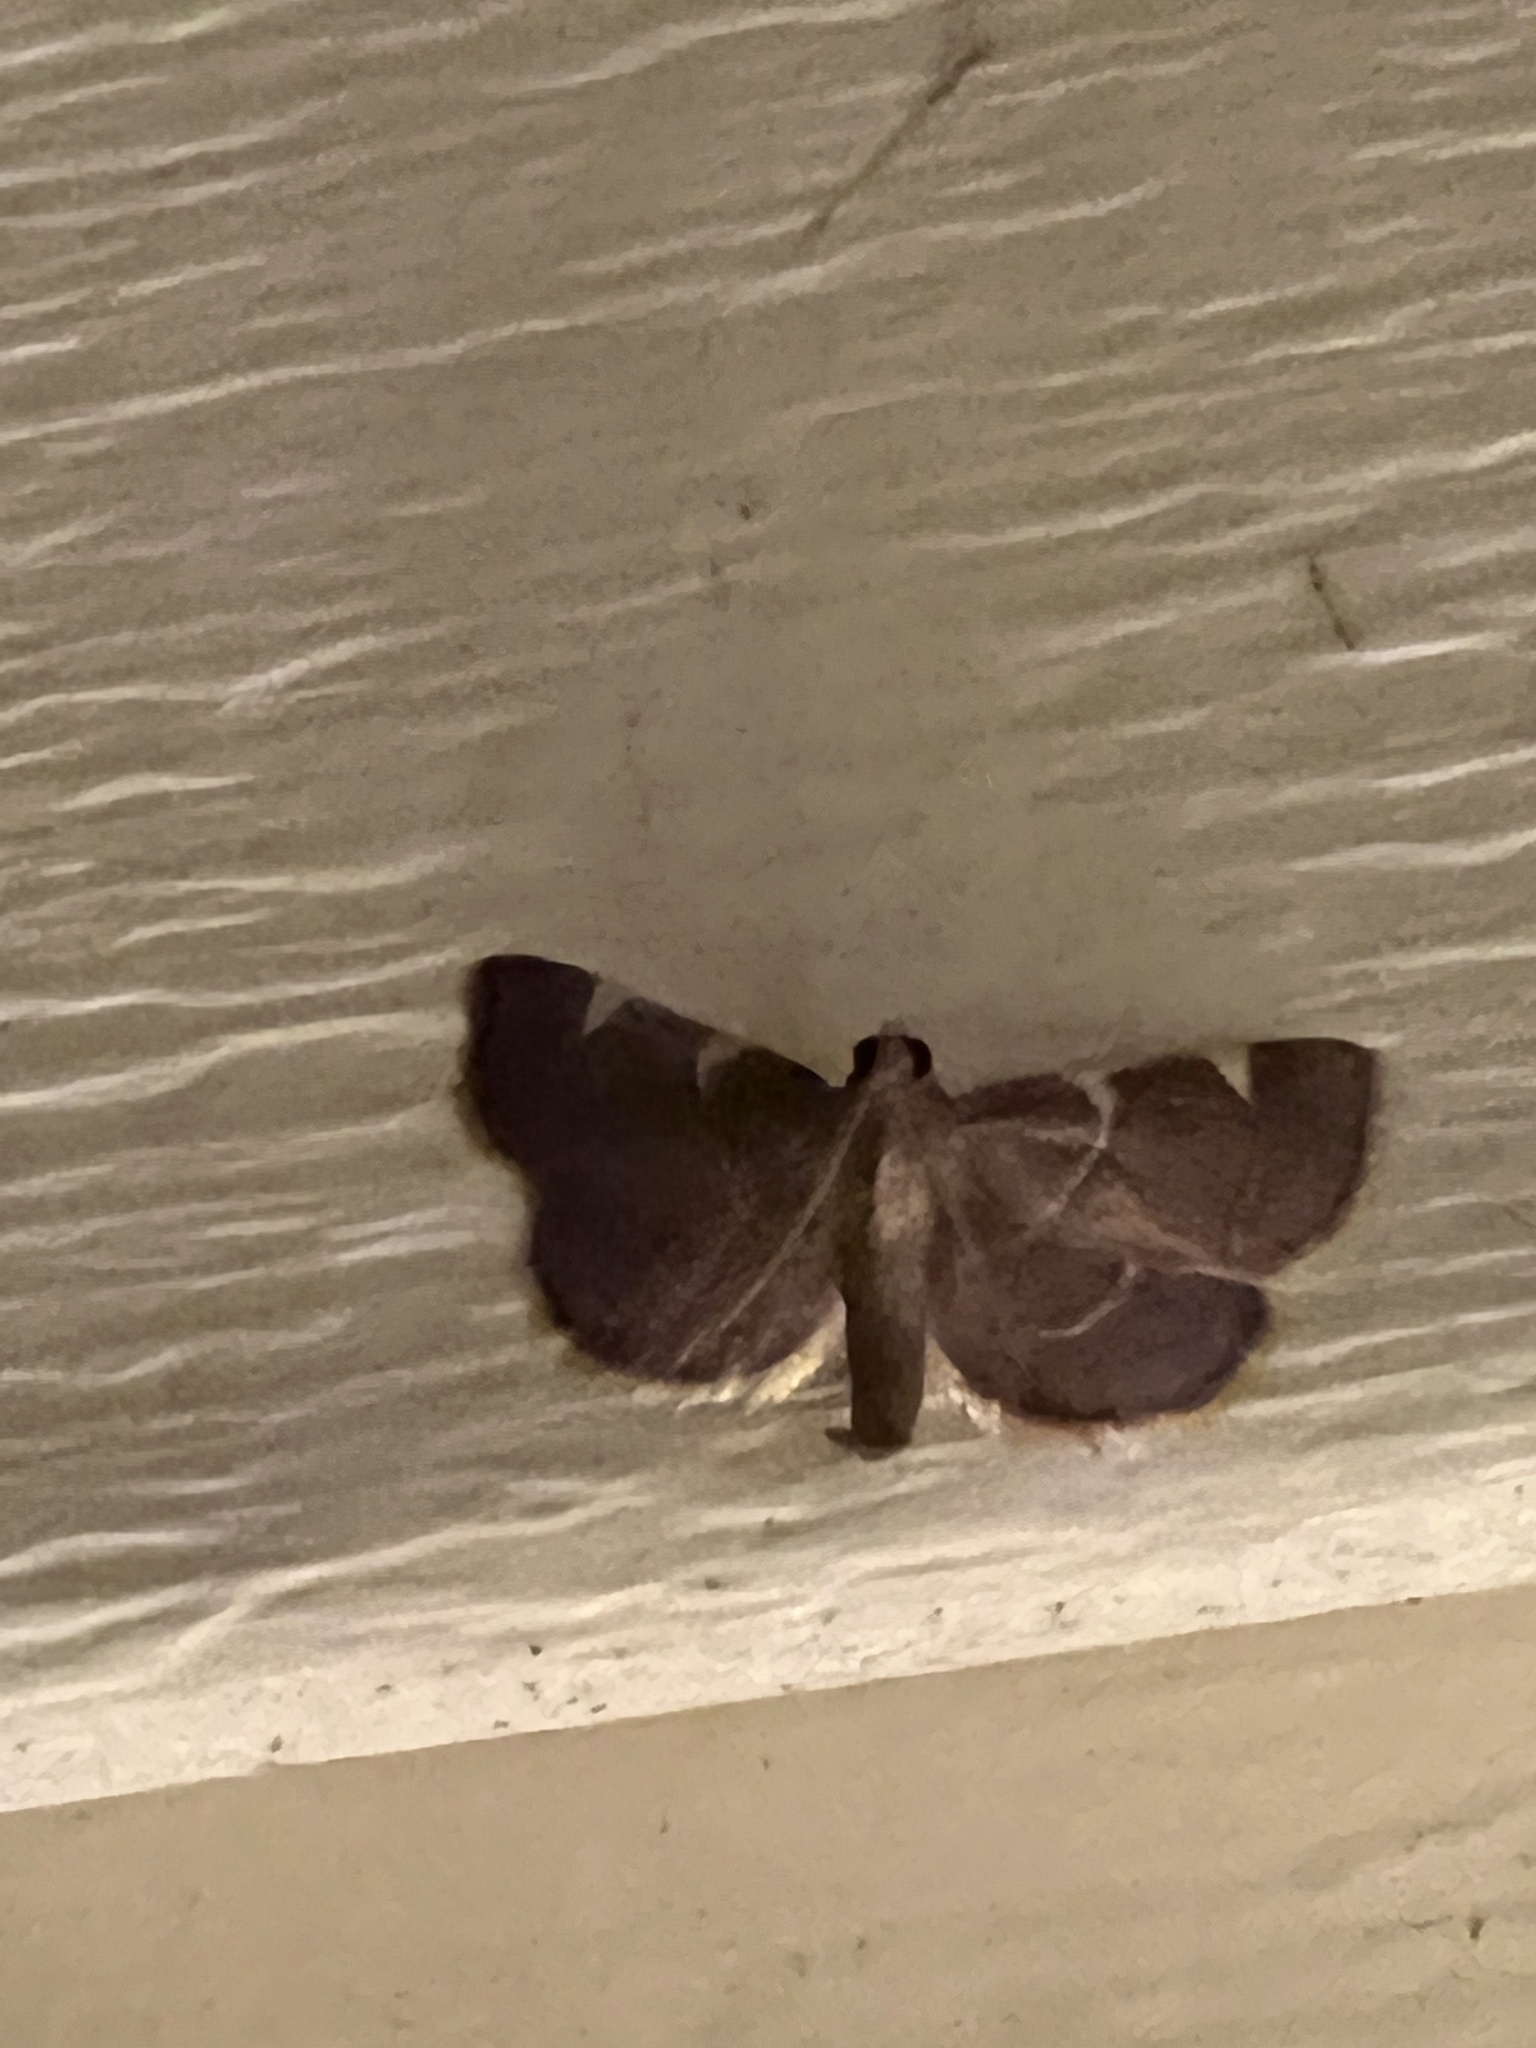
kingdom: Animalia
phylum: Arthropoda
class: Insecta
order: Lepidoptera
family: Pyralidae
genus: Hypsopygia
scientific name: Hypsopygia olinalis
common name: Yellow-fringed dolichomia moth
